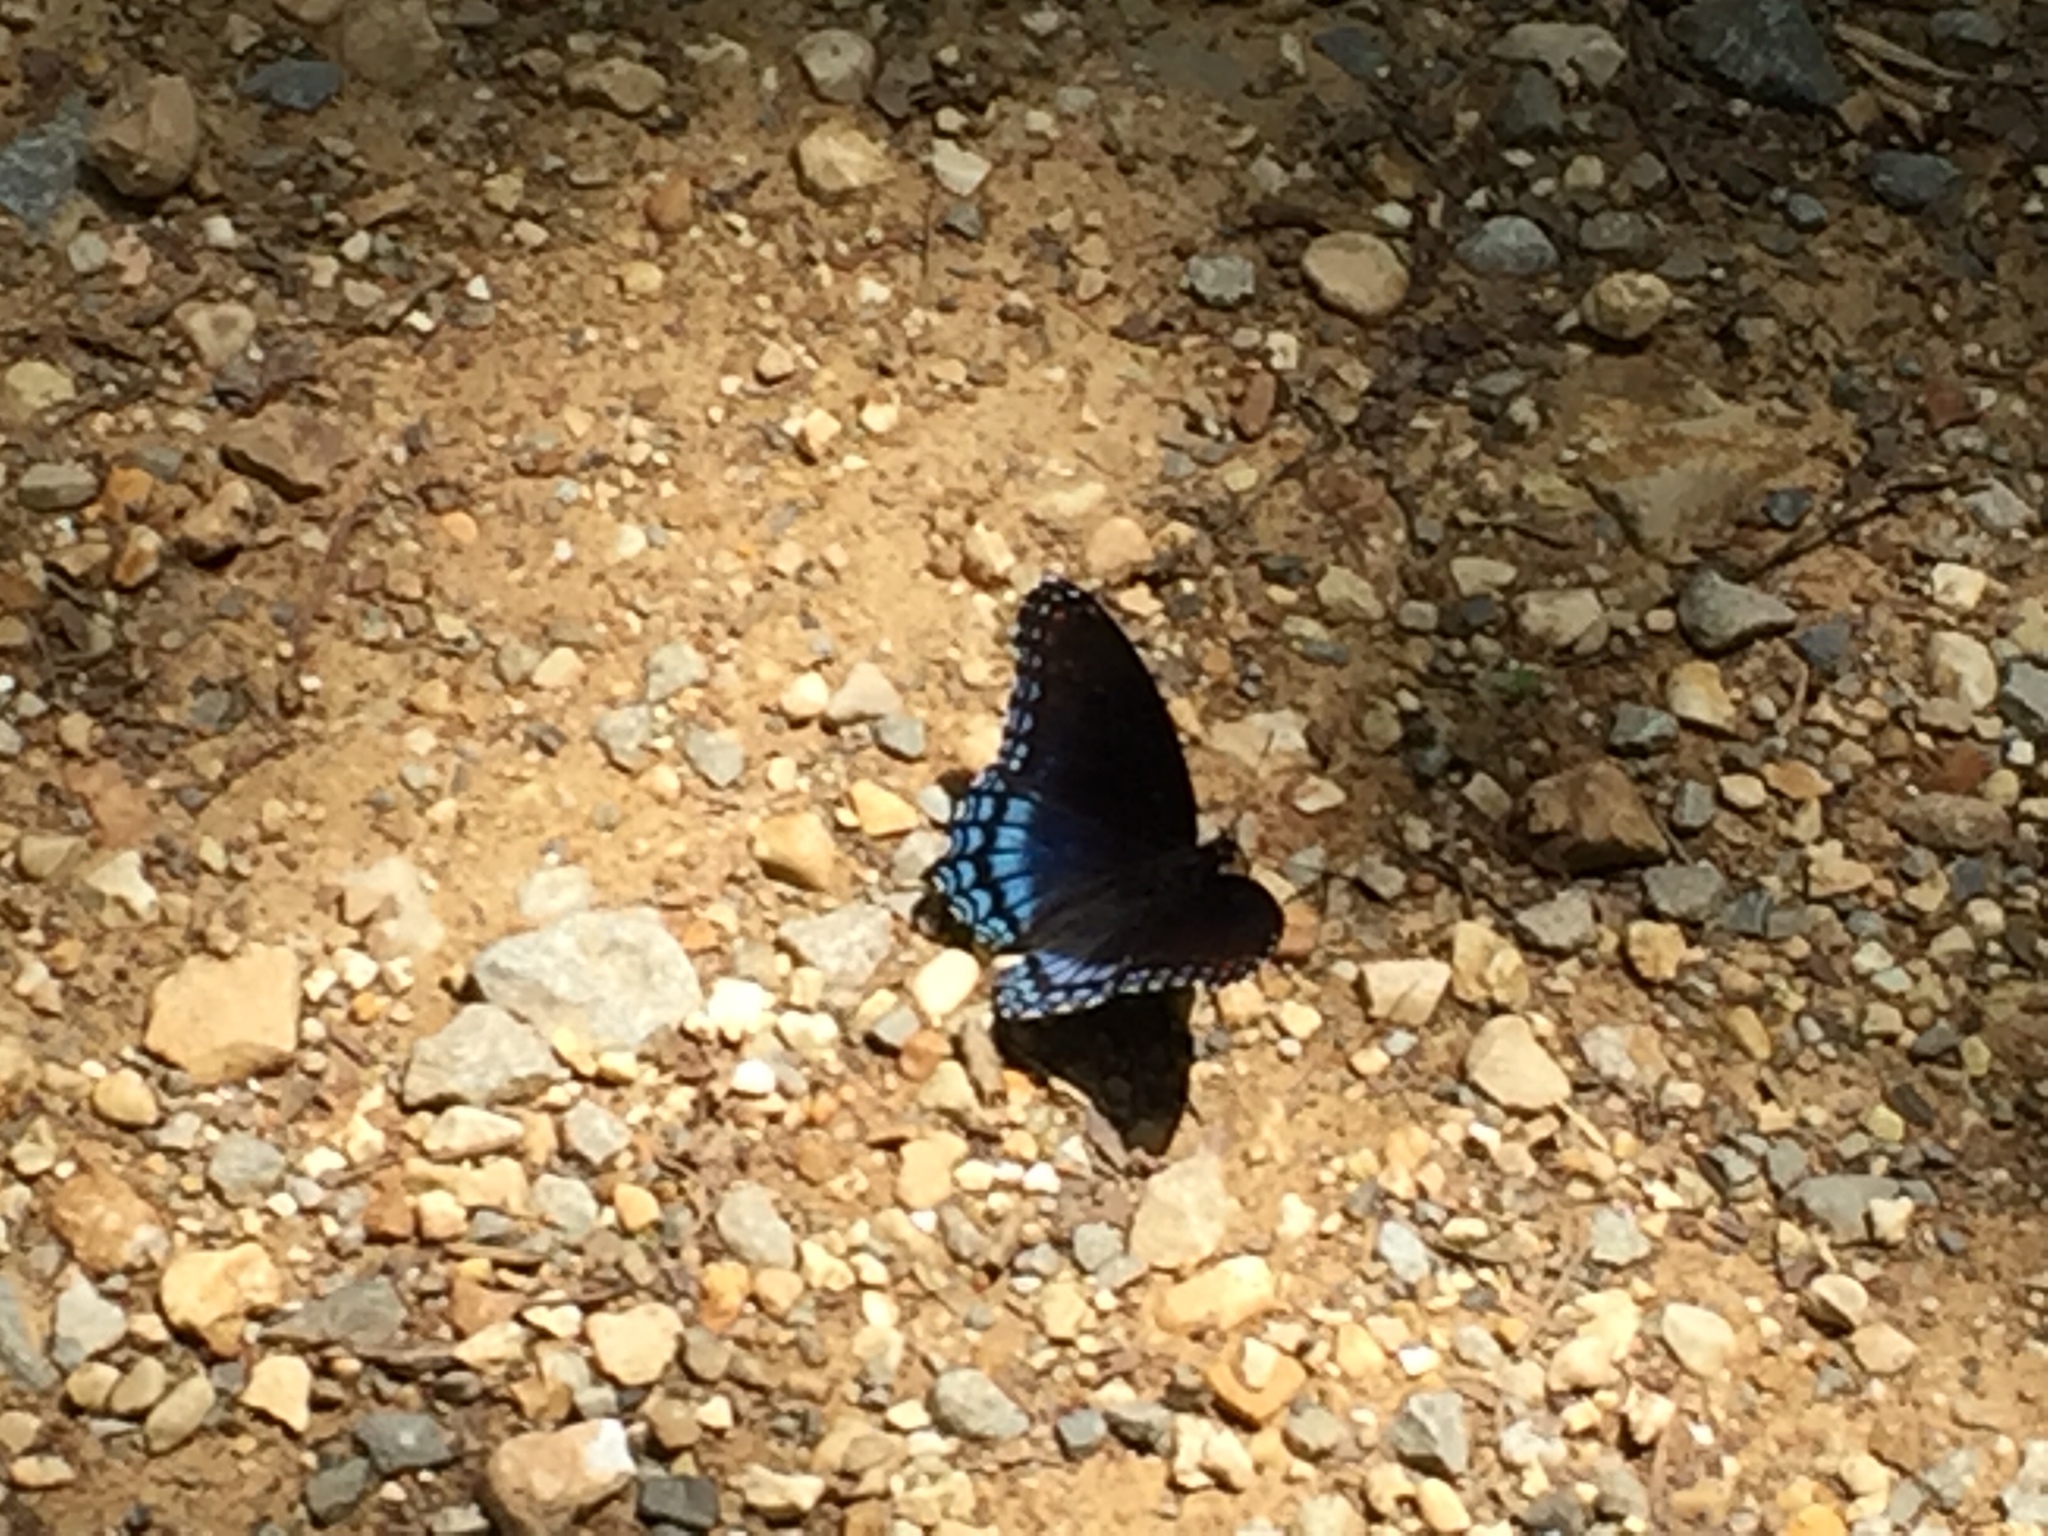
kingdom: Animalia
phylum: Arthropoda
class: Insecta
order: Lepidoptera
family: Nymphalidae
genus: Limenitis
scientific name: Limenitis astyanax
